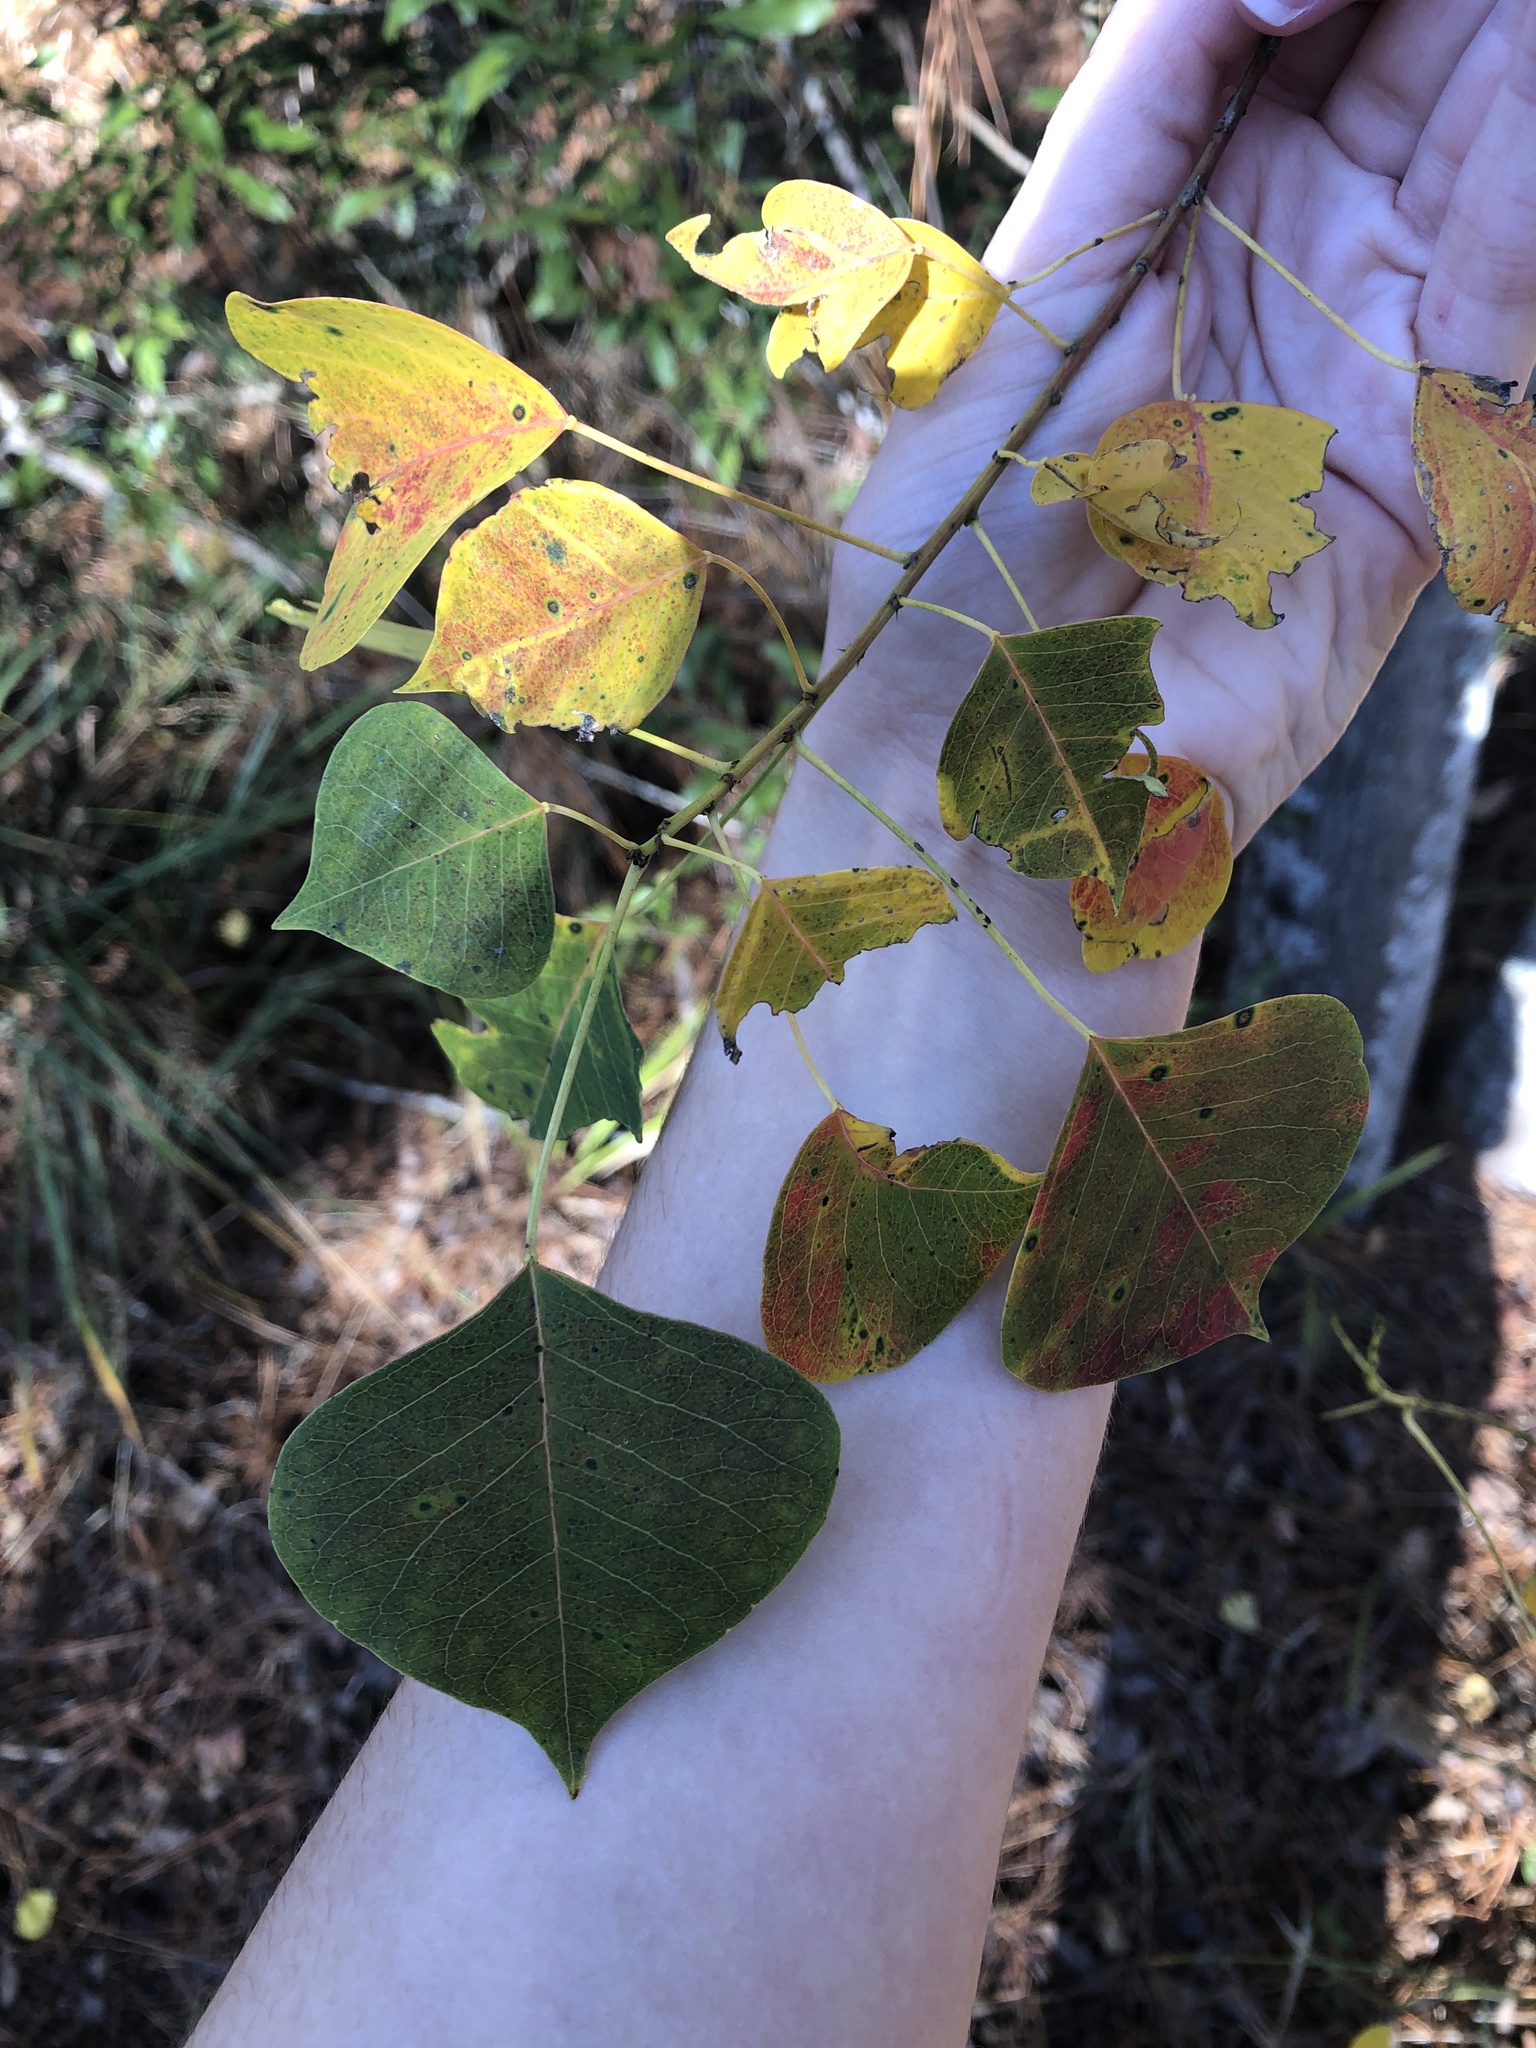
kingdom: Plantae
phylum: Tracheophyta
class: Magnoliopsida
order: Malpighiales
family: Euphorbiaceae
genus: Triadica
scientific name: Triadica sebifera
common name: Chinese tallow
